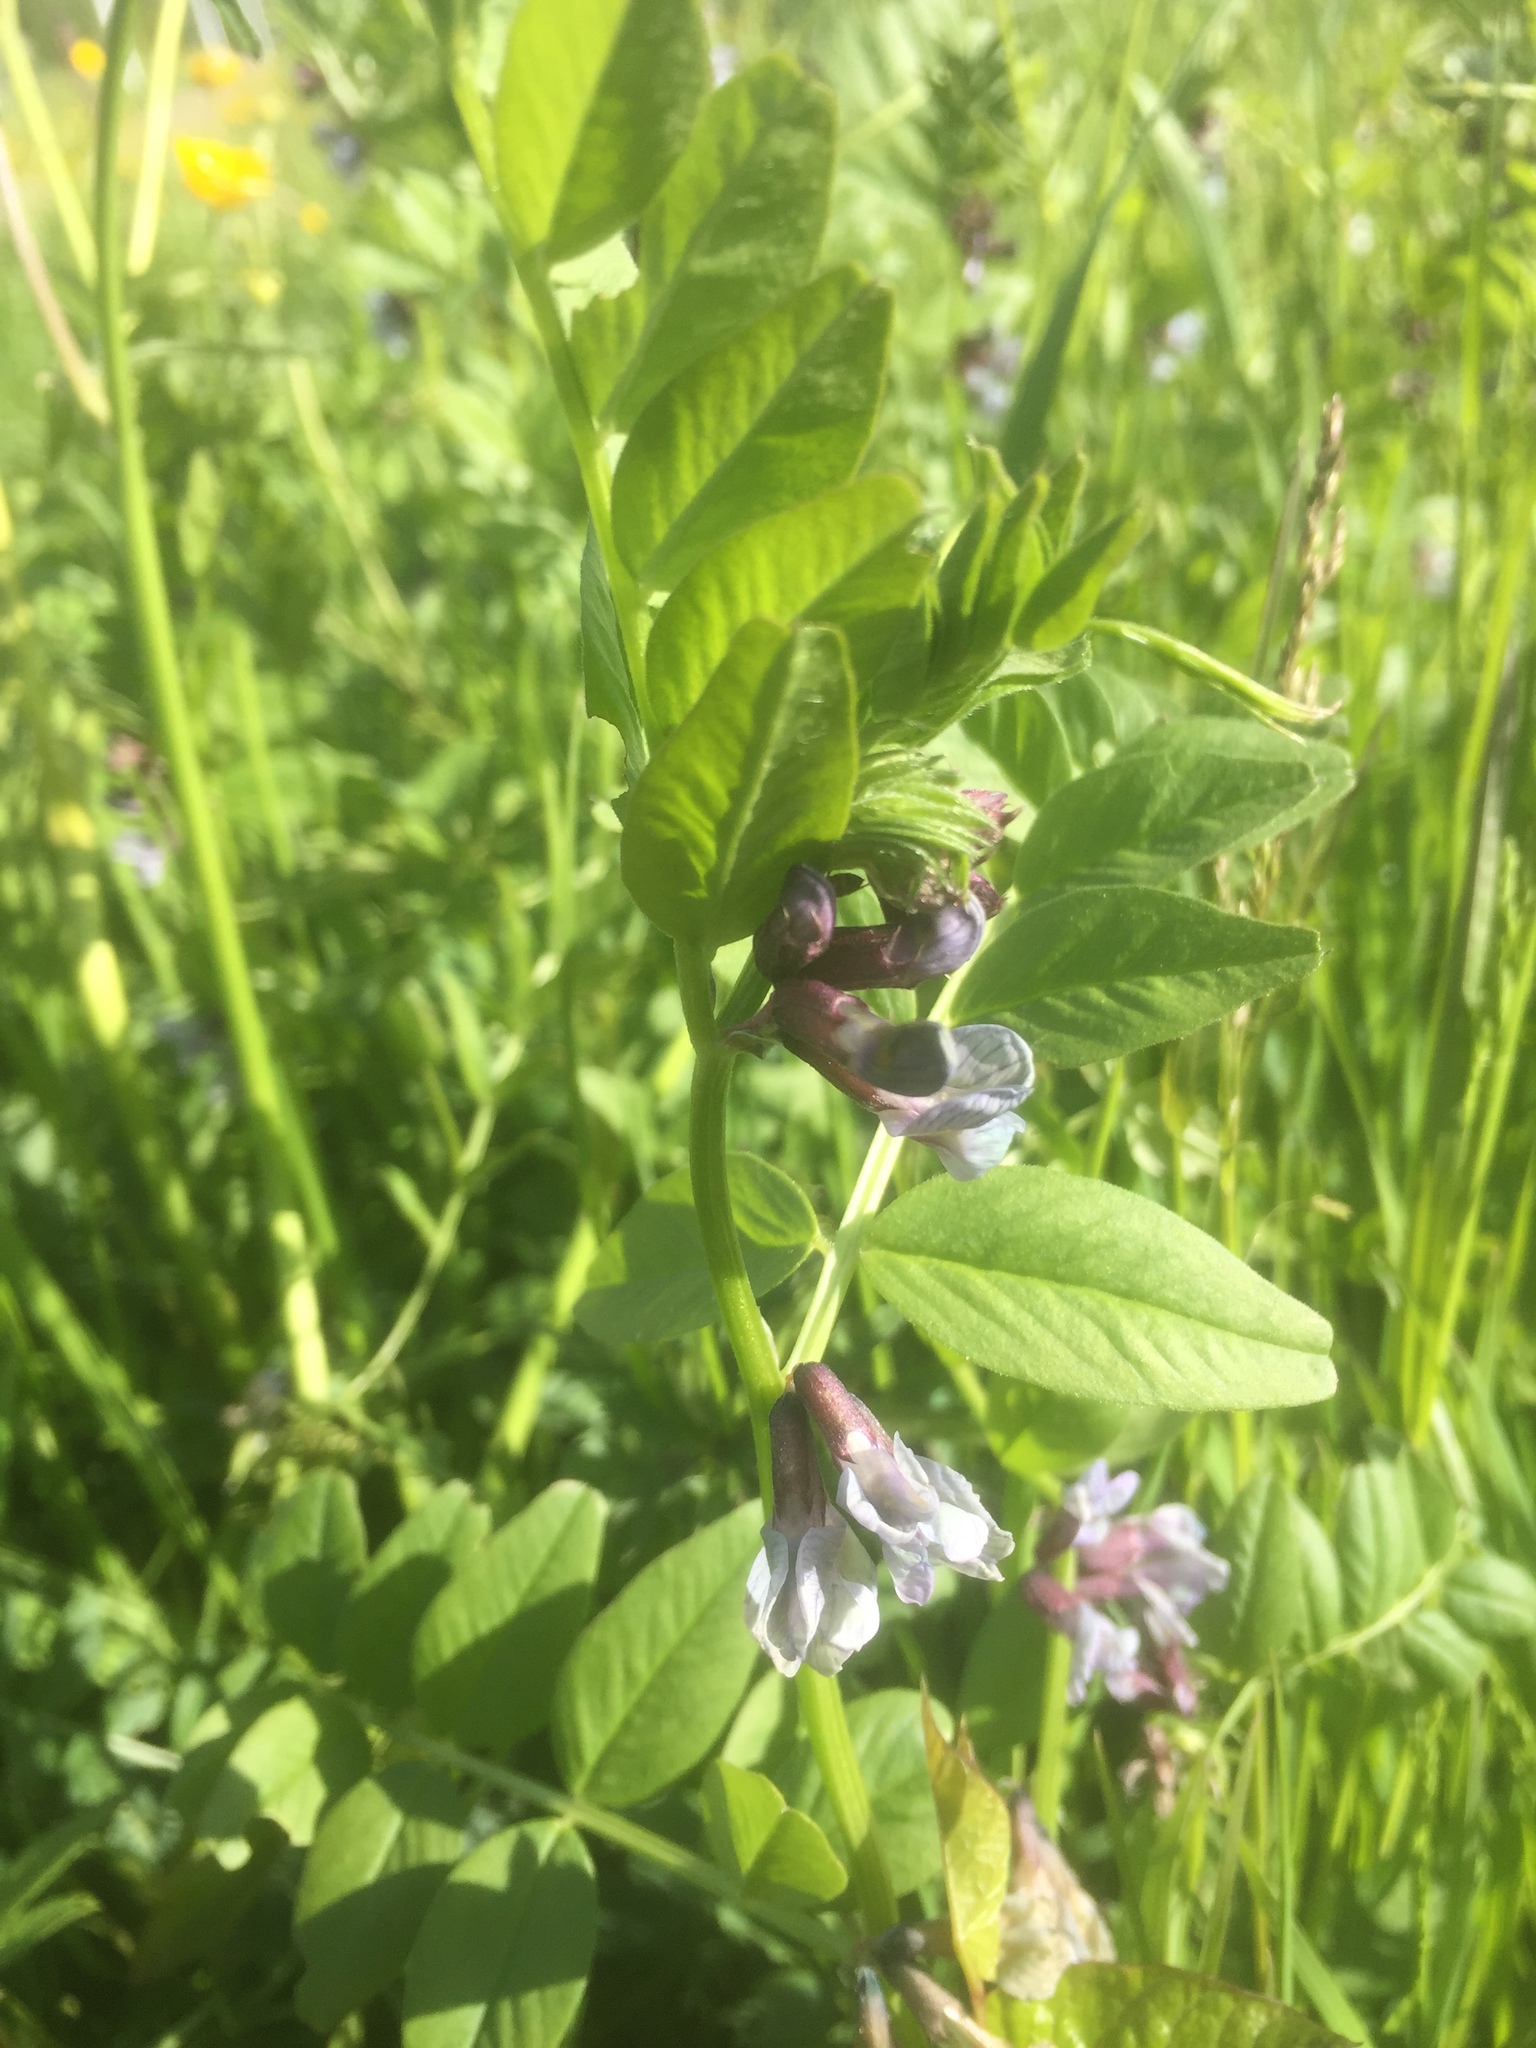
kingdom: Plantae
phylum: Tracheophyta
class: Magnoliopsida
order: Fabales
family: Fabaceae
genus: Vicia
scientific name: Vicia sepium
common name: Bush vetch
